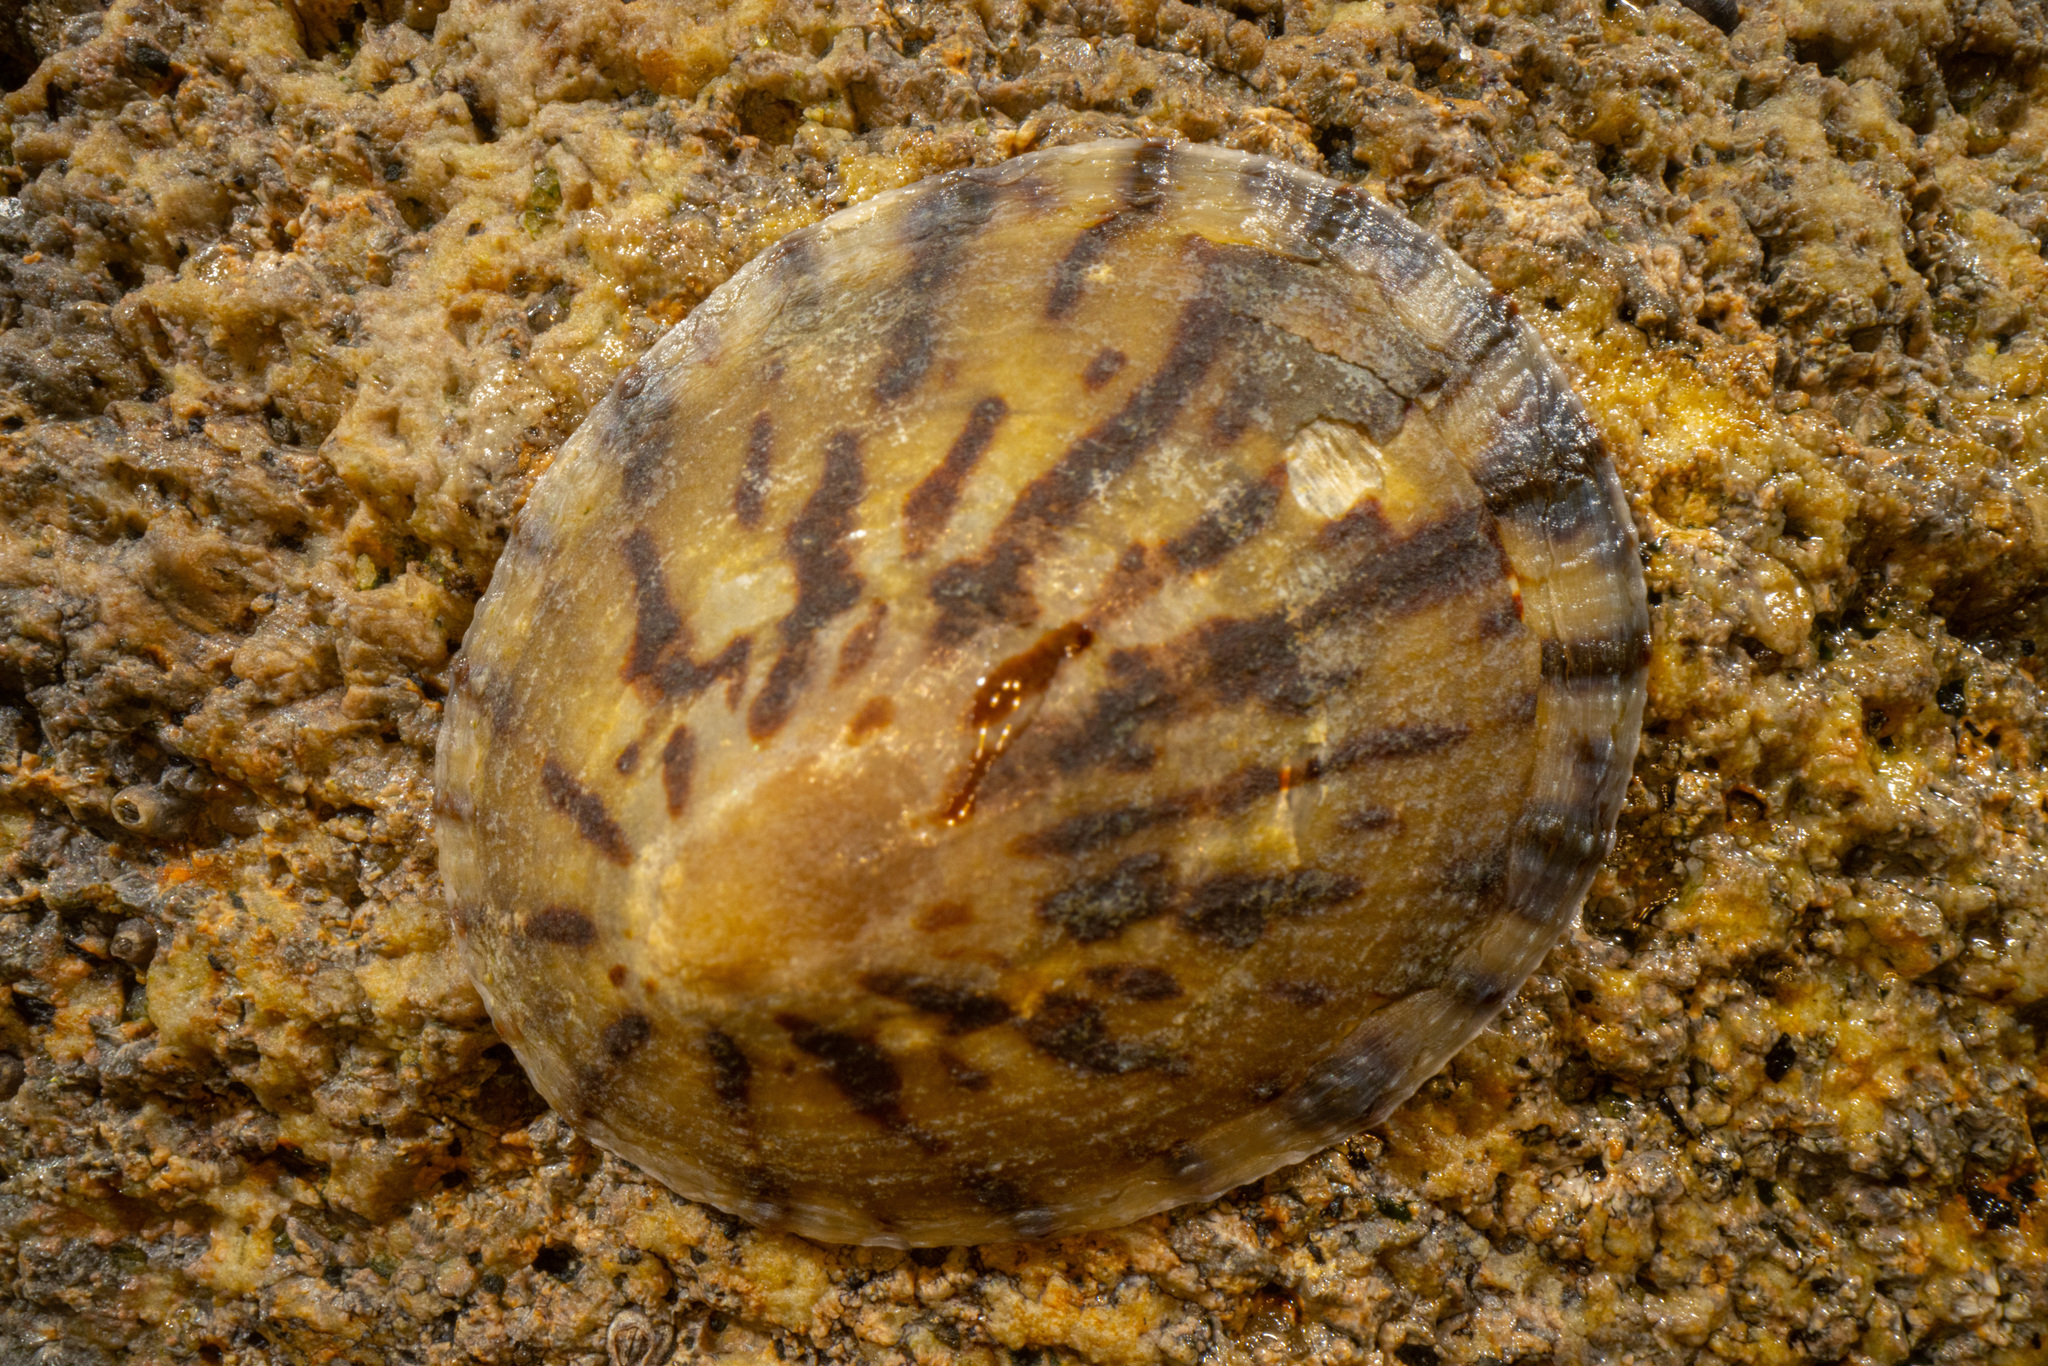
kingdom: Animalia
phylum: Mollusca
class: Gastropoda
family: Nacellidae
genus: Cellana
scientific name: Cellana radians
